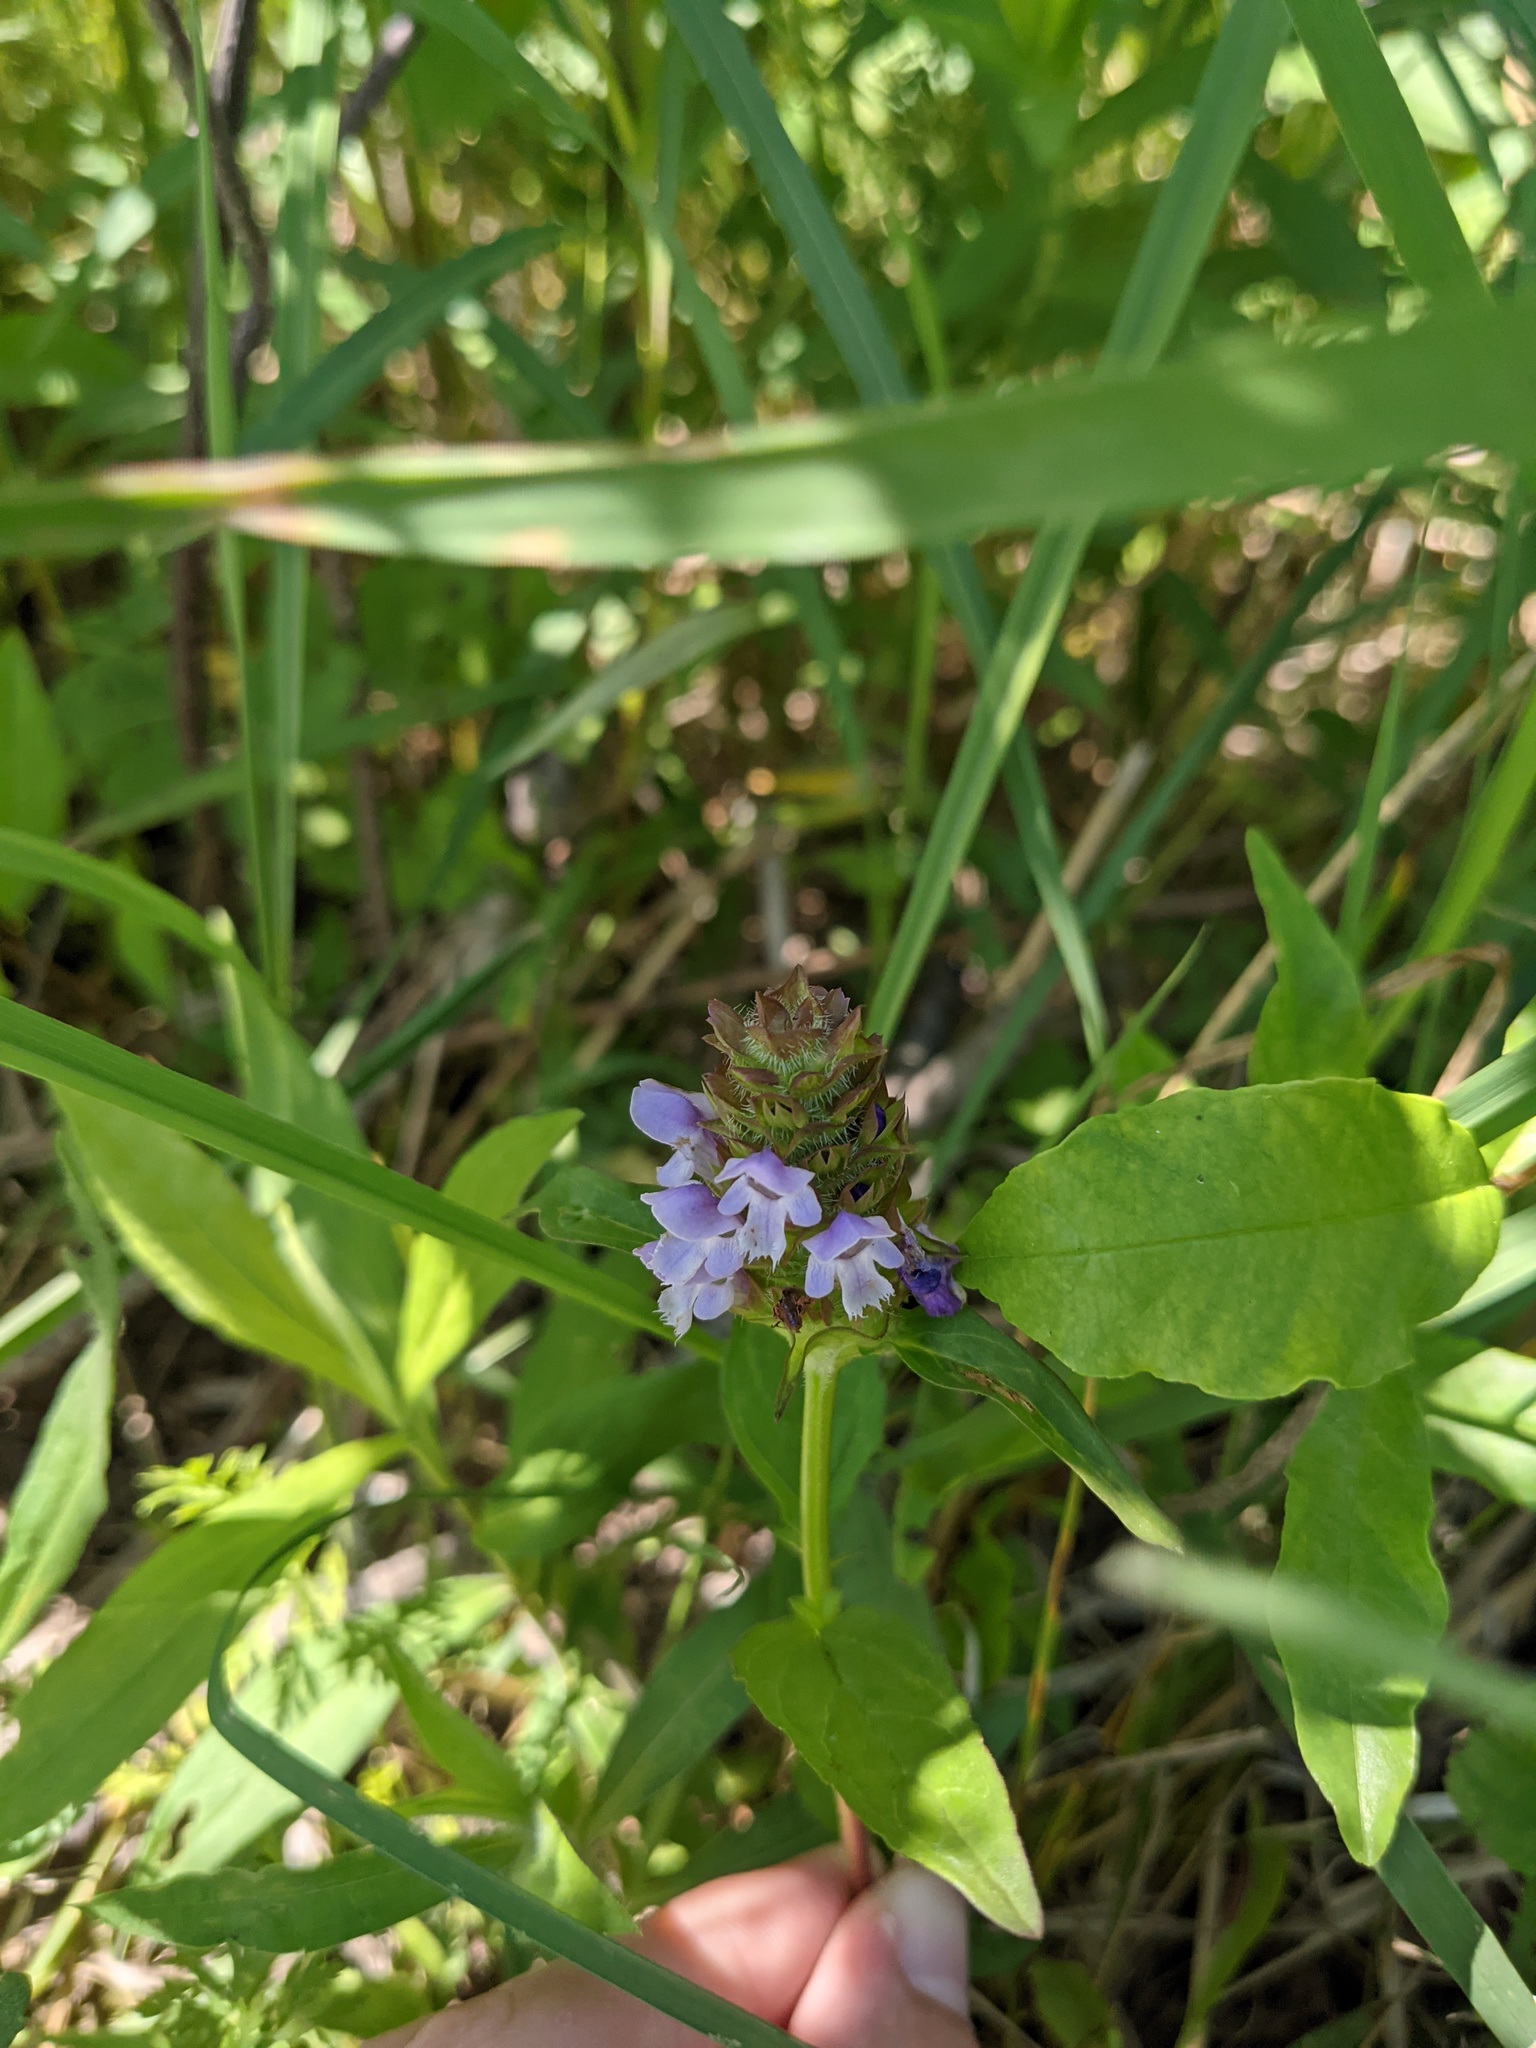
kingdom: Plantae
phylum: Tracheophyta
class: Magnoliopsida
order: Lamiales
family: Lamiaceae
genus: Prunella
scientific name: Prunella vulgaris
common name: Heal-all
